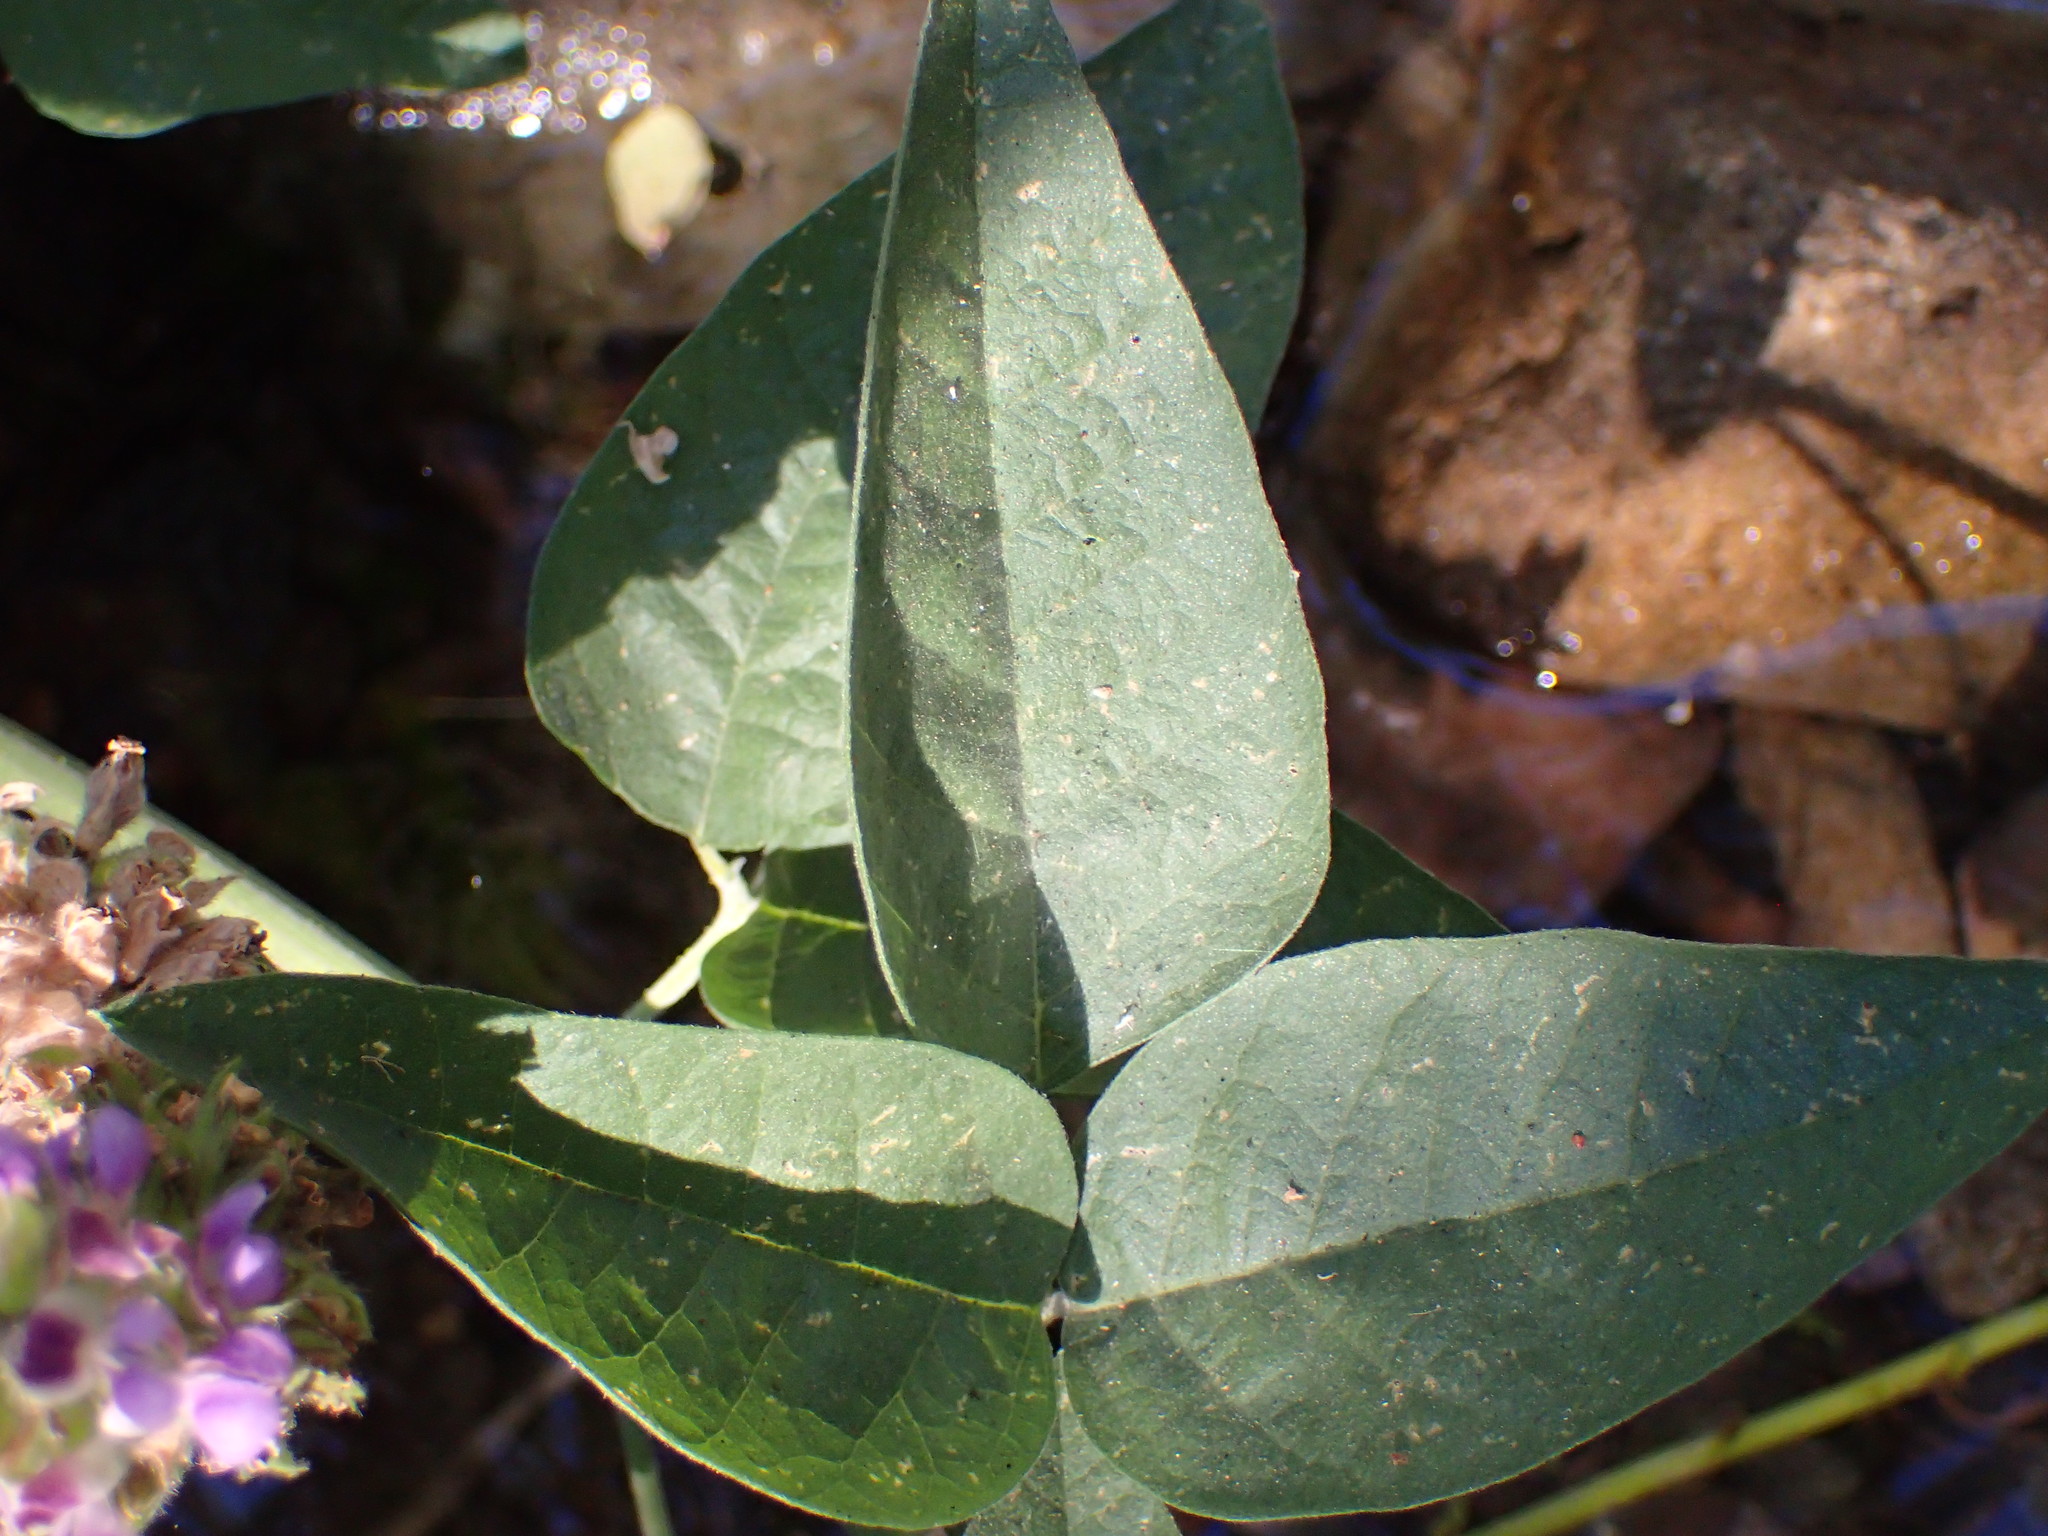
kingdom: Plantae
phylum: Tracheophyta
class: Magnoliopsida
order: Fabales
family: Fabaceae
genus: Hoita
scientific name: Hoita macrostachya
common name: Leatherroot
